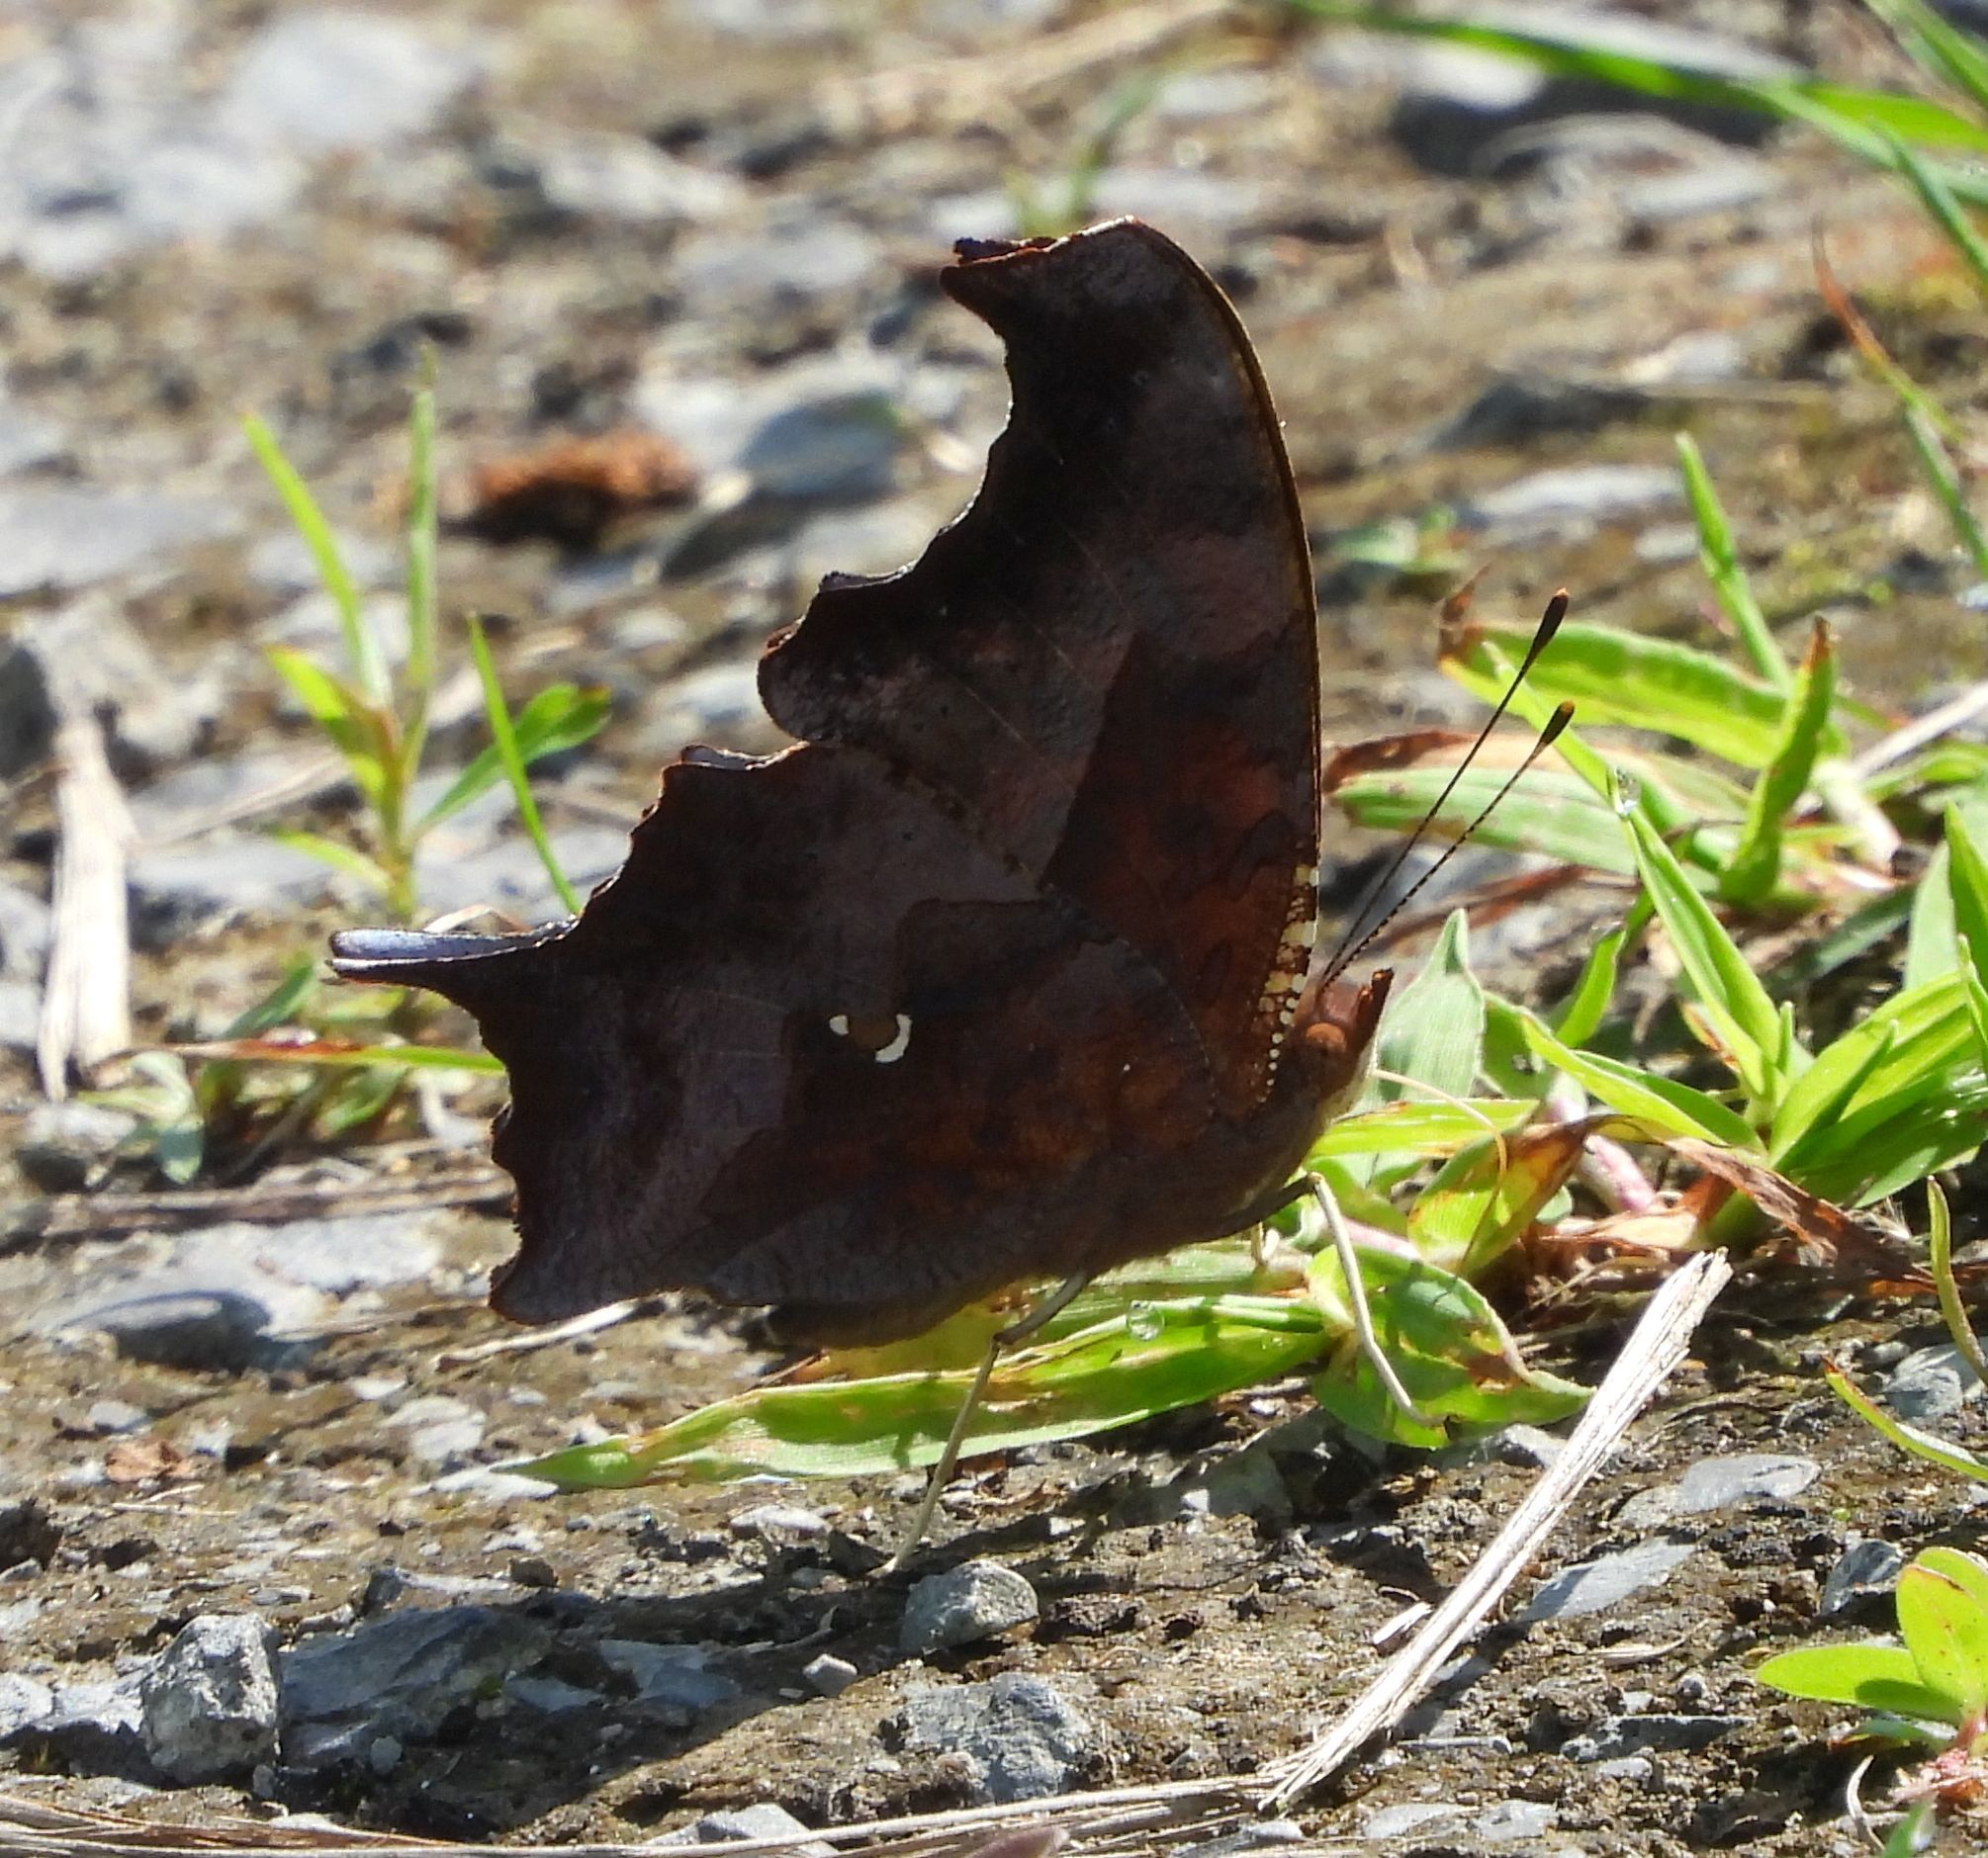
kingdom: Animalia
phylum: Arthropoda
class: Insecta
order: Lepidoptera
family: Nymphalidae
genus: Polygonia
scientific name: Polygonia interrogationis
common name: Question mark
